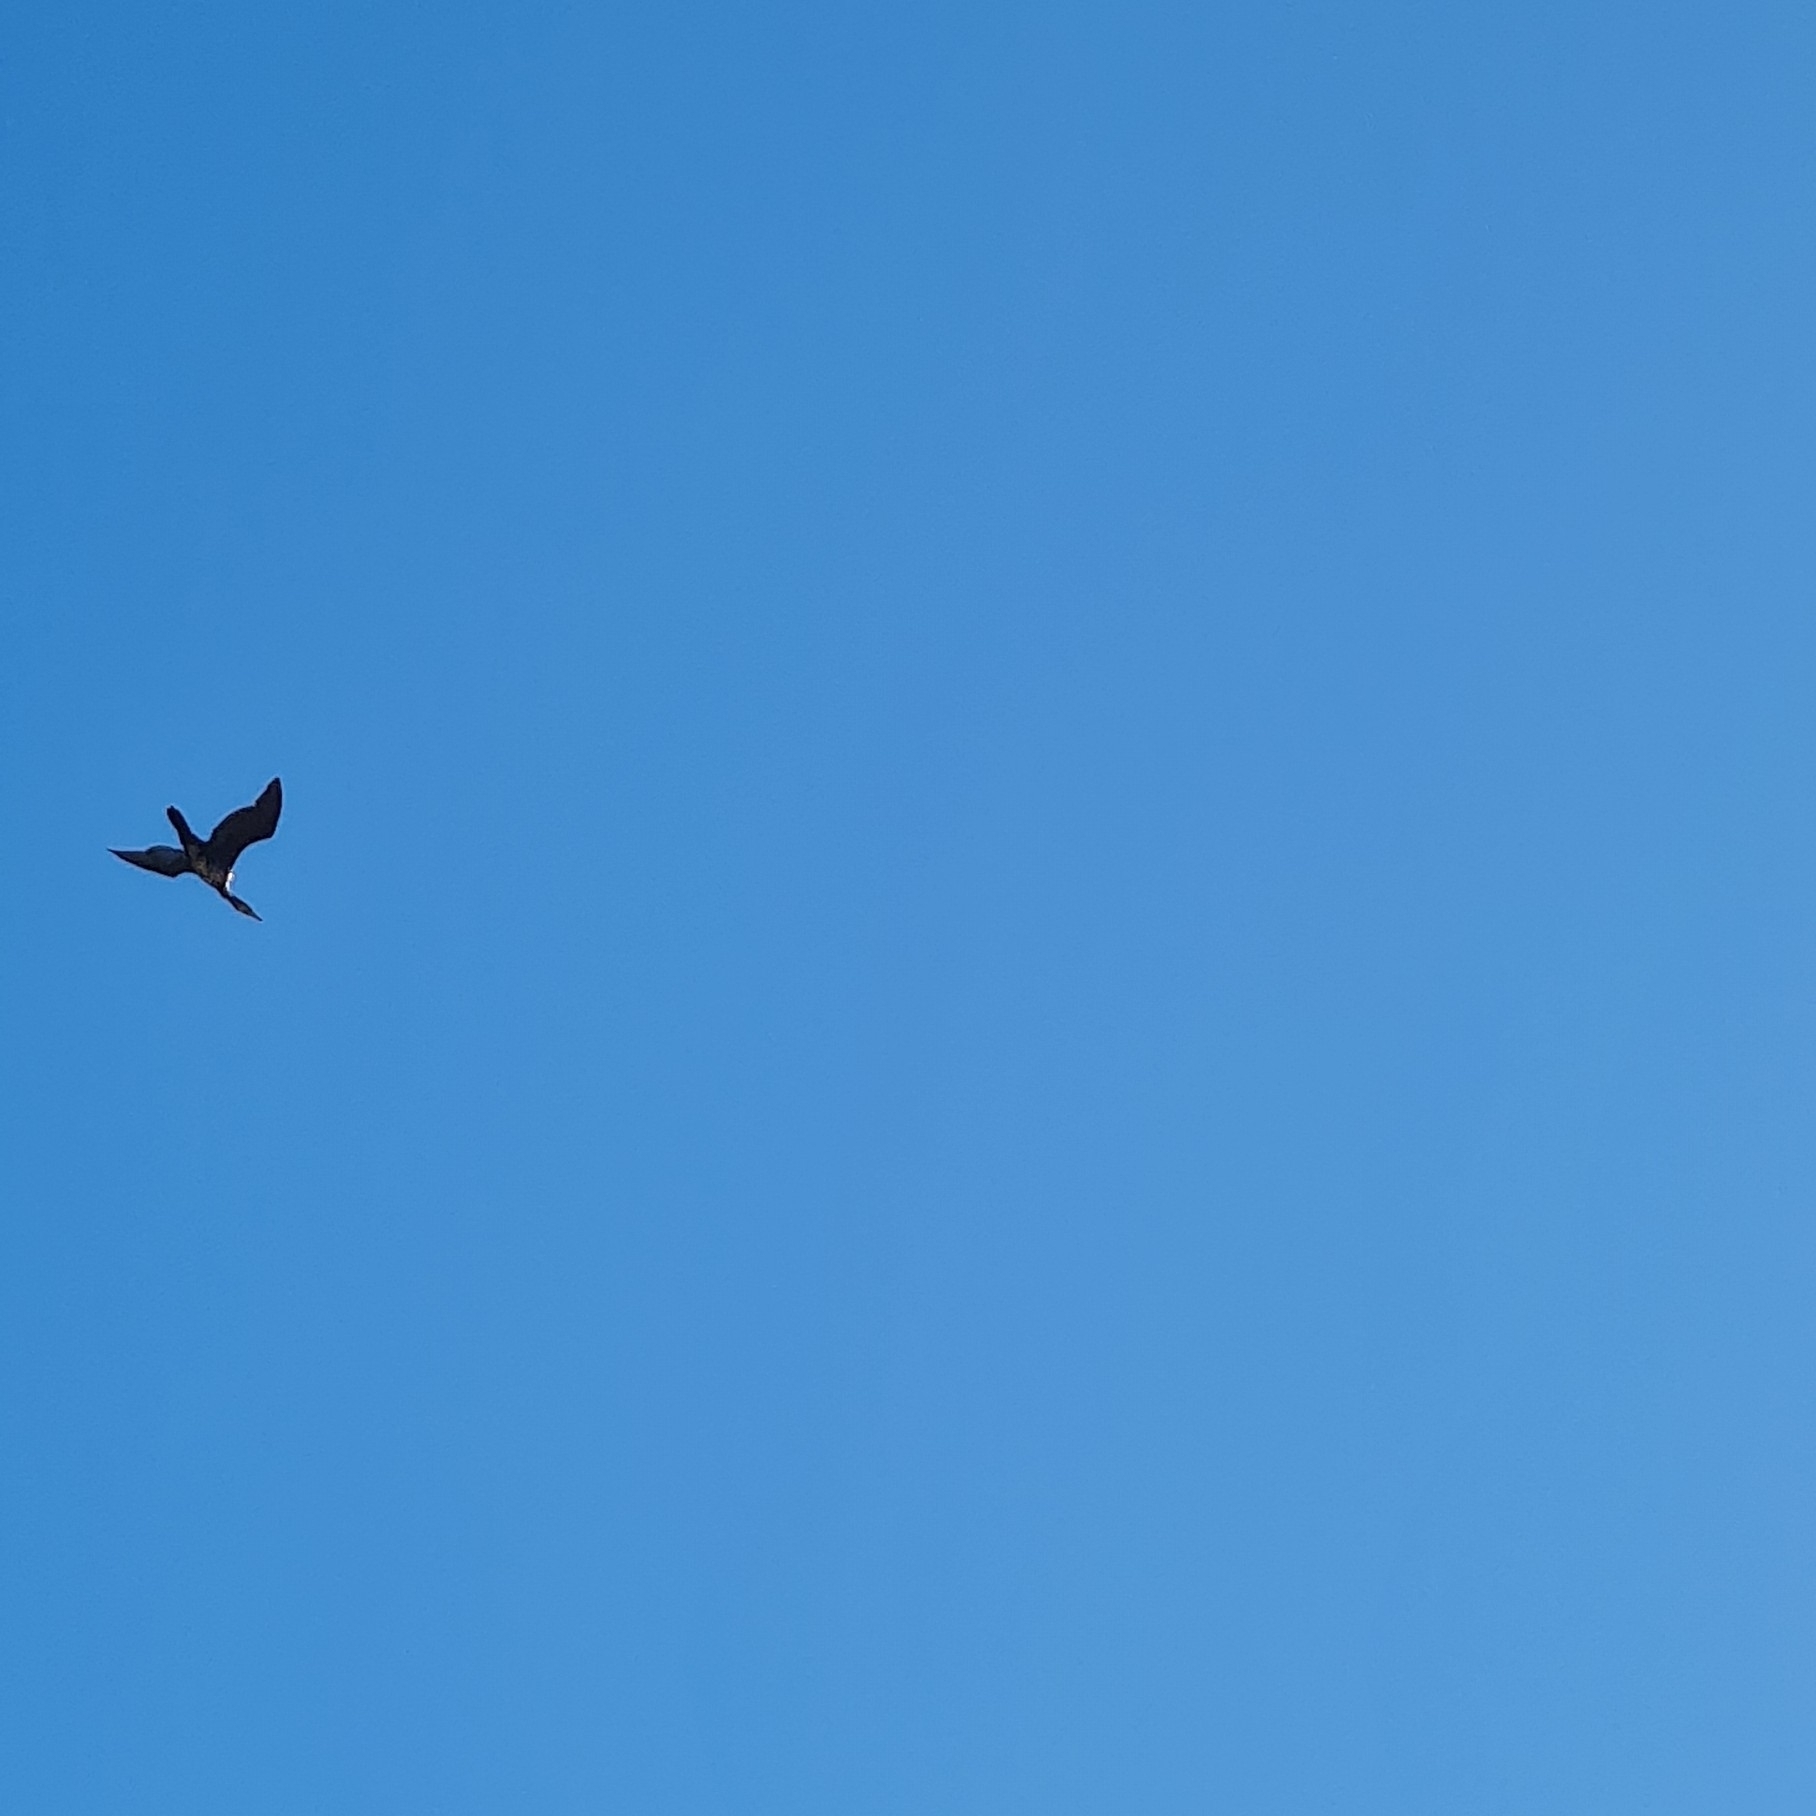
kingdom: Animalia
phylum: Chordata
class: Aves
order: Suliformes
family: Phalacrocoracidae
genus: Phalacrocorax
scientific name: Phalacrocorax carbo
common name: Great cormorant
